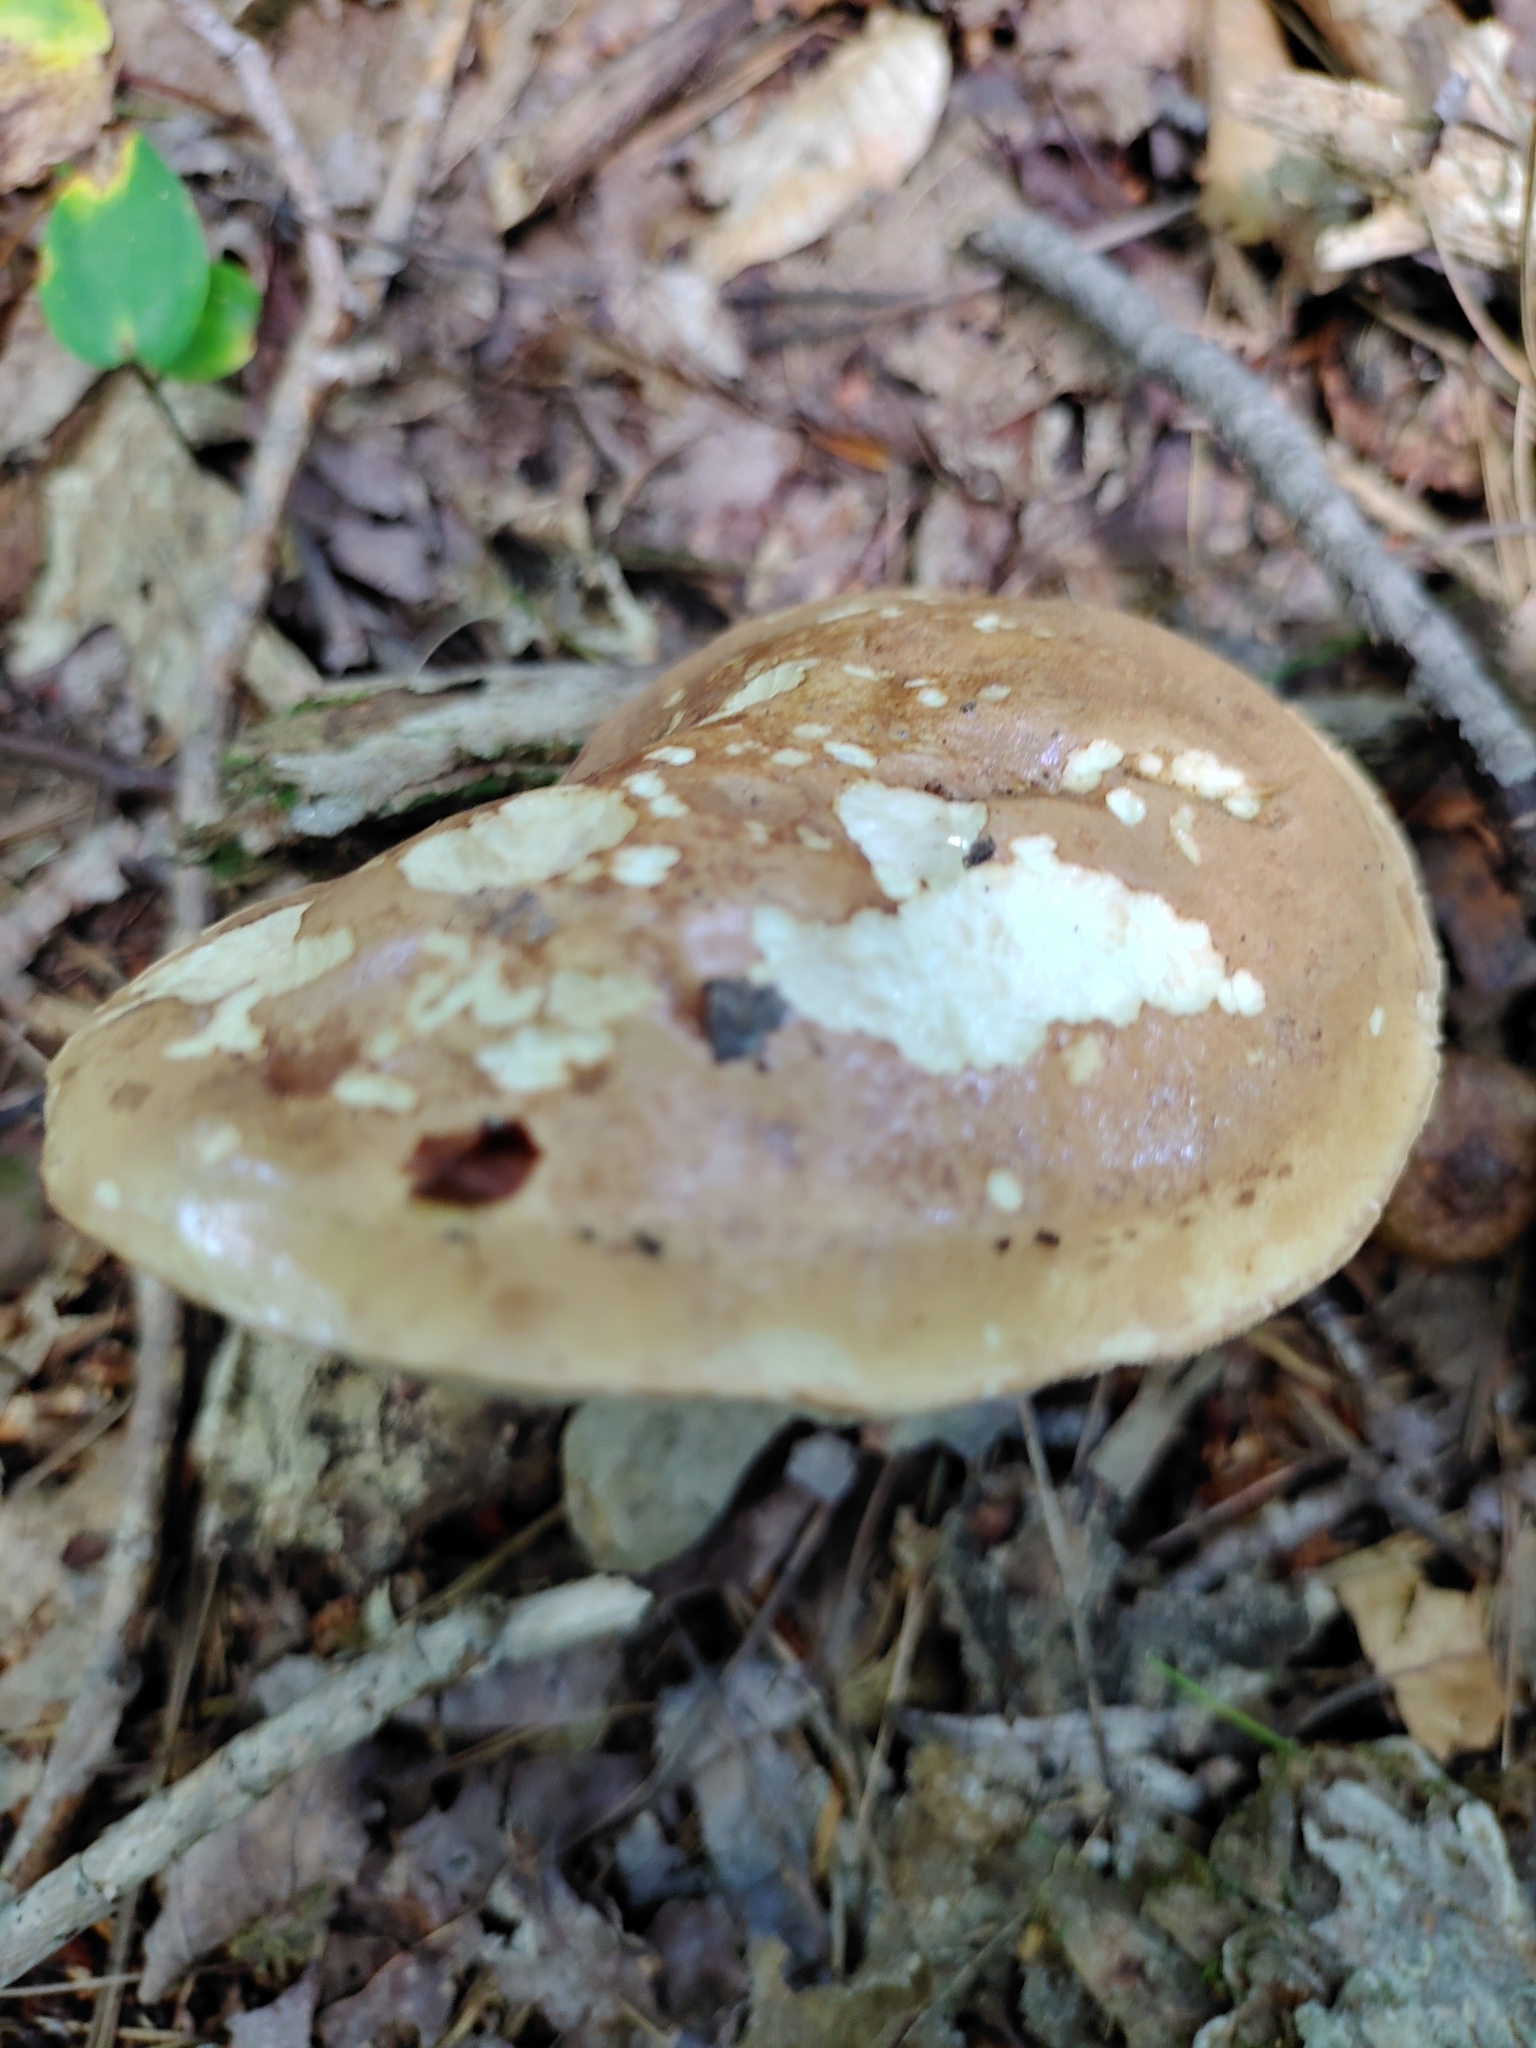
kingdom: Fungi
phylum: Basidiomycota
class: Agaricomycetes
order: Boletales
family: Boletaceae
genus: Tylopilus
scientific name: Tylopilus felleus
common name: Bitter bolete
